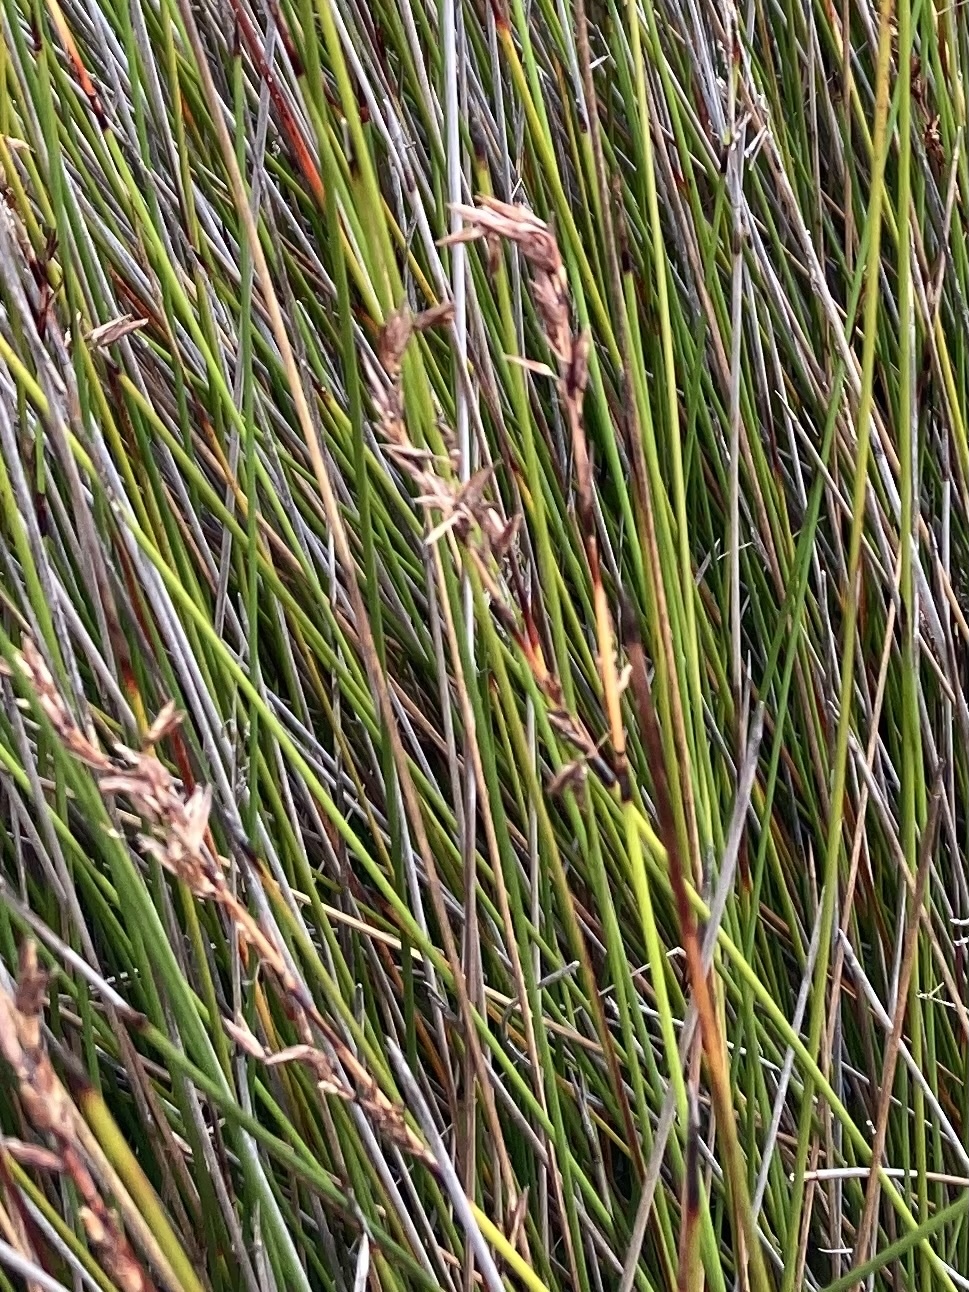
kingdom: Plantae
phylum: Tracheophyta
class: Liliopsida
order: Poales
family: Cyperaceae
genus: Schoenus
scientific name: Schoenus brevifolius
